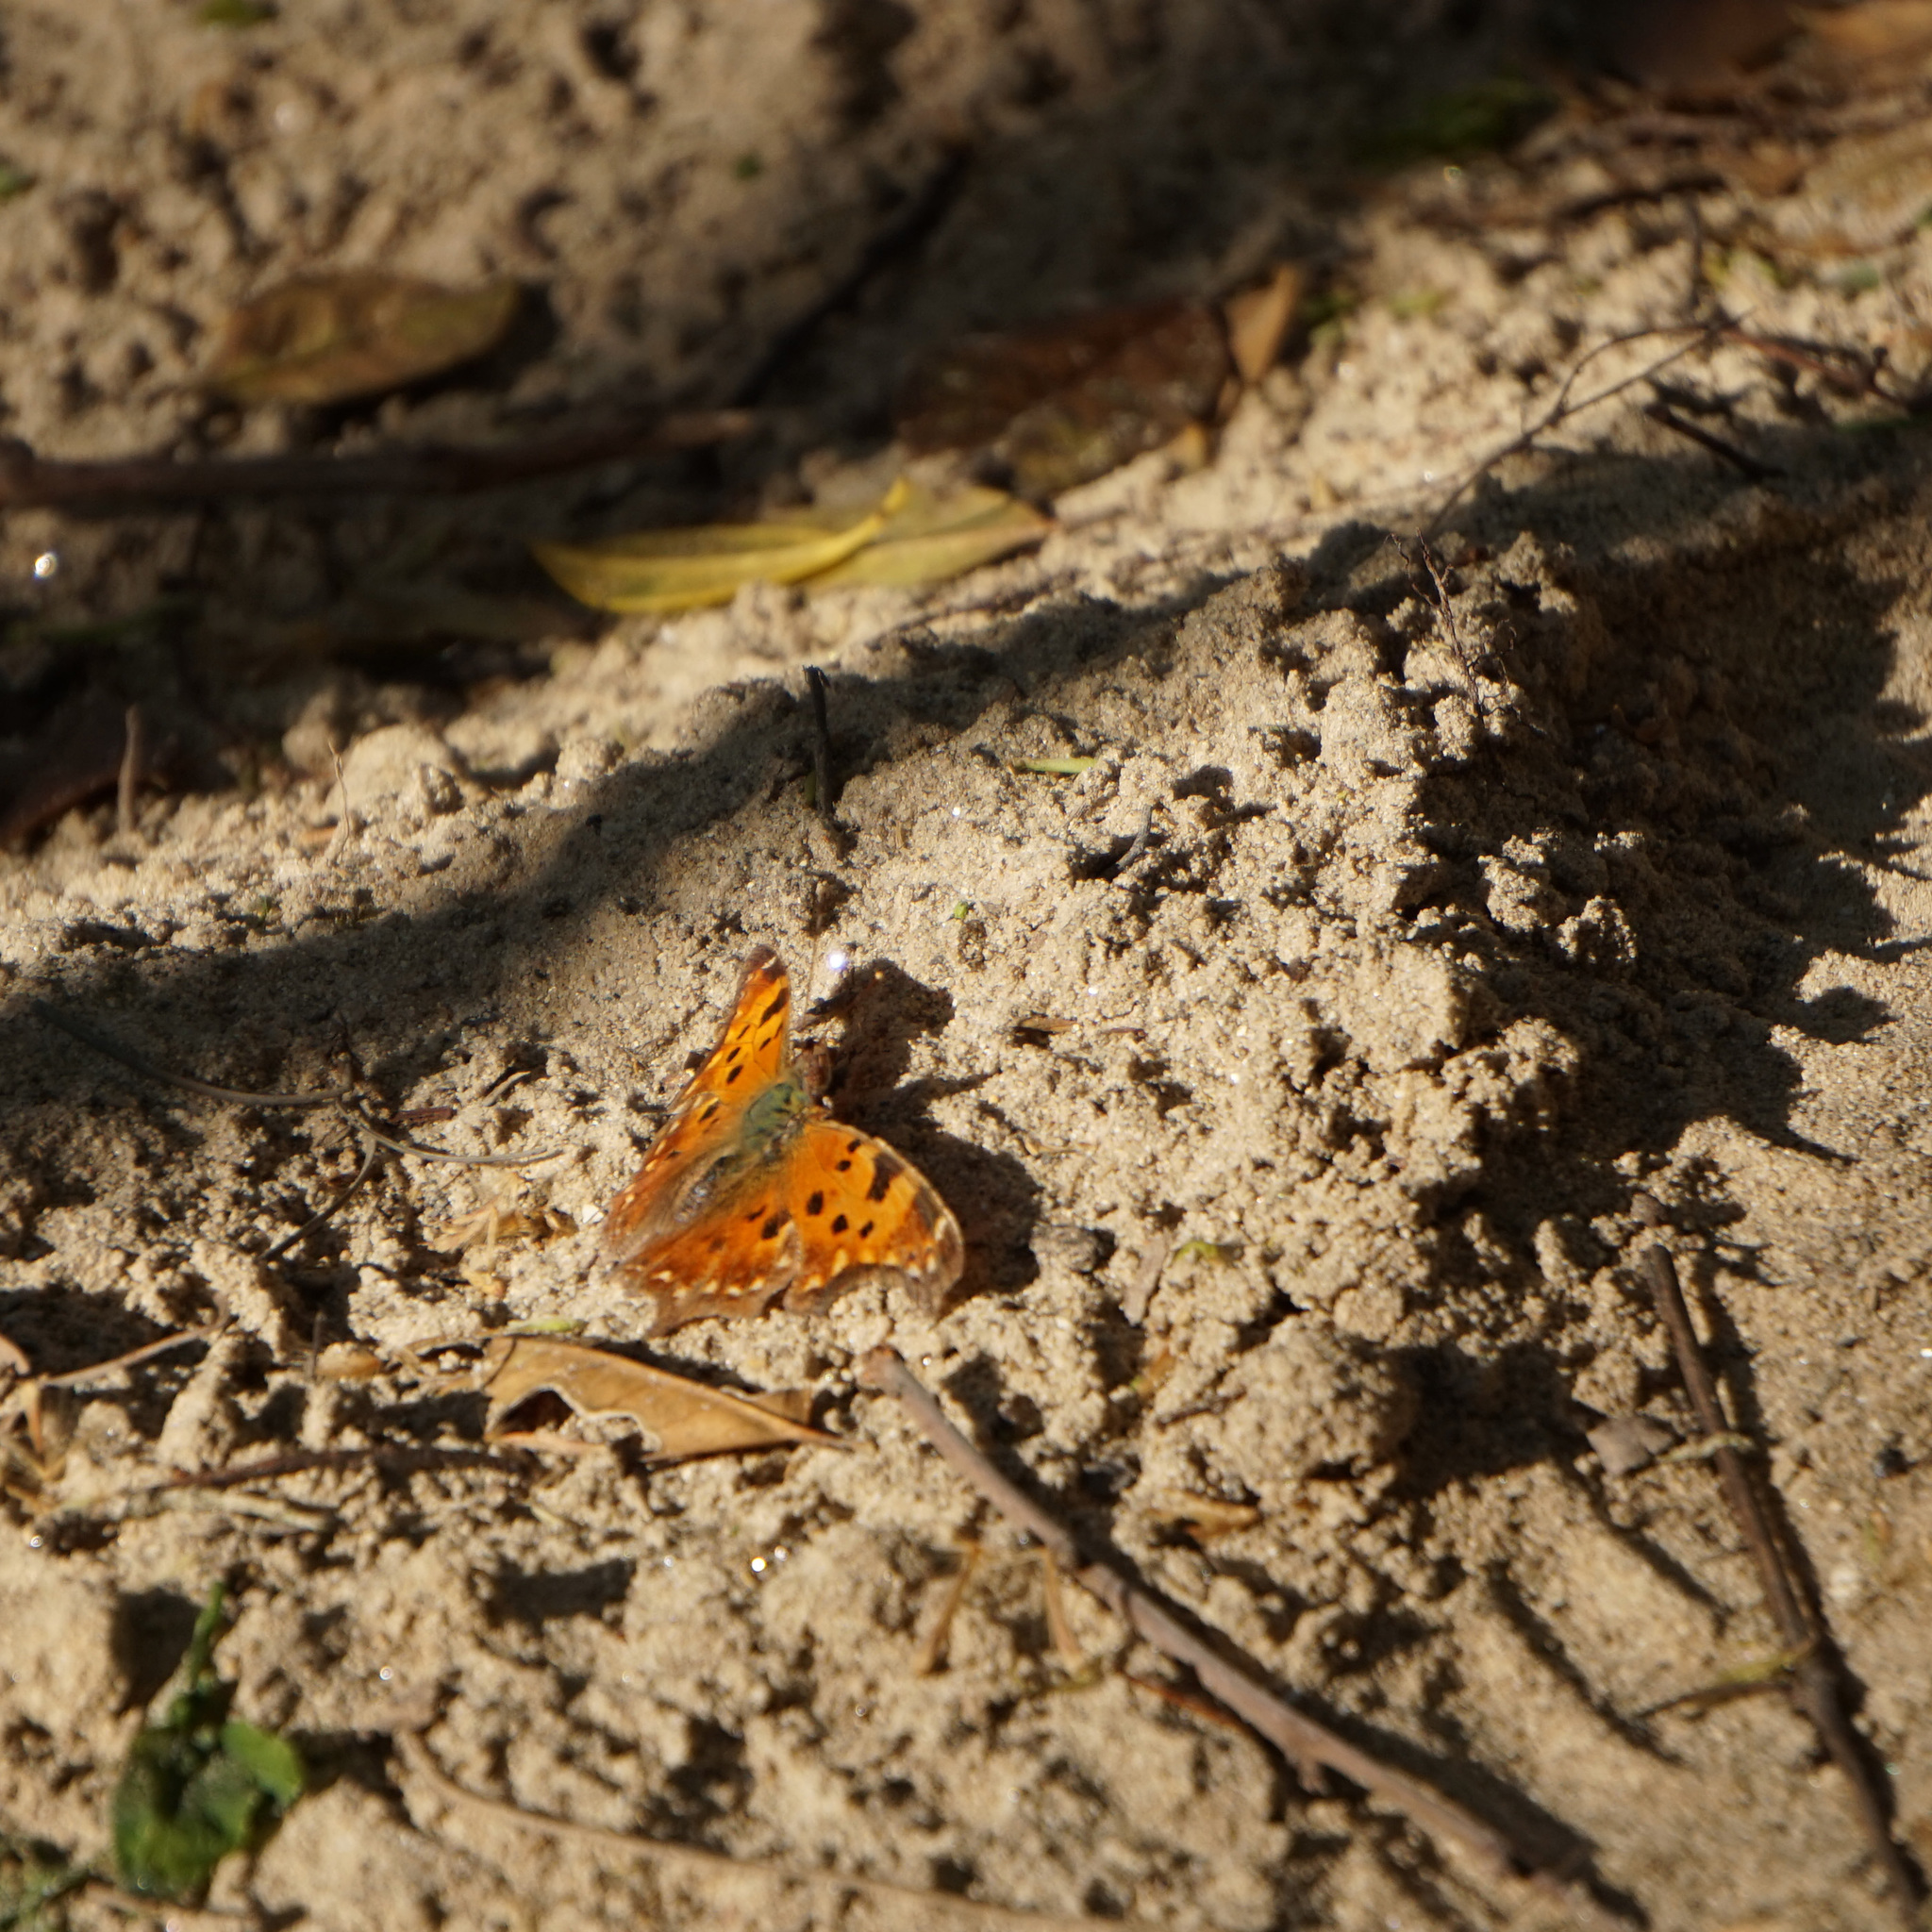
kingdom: Animalia
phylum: Arthropoda
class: Insecta
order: Lepidoptera
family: Nymphalidae
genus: Polygonia
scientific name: Polygonia comma
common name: Eastern comma
